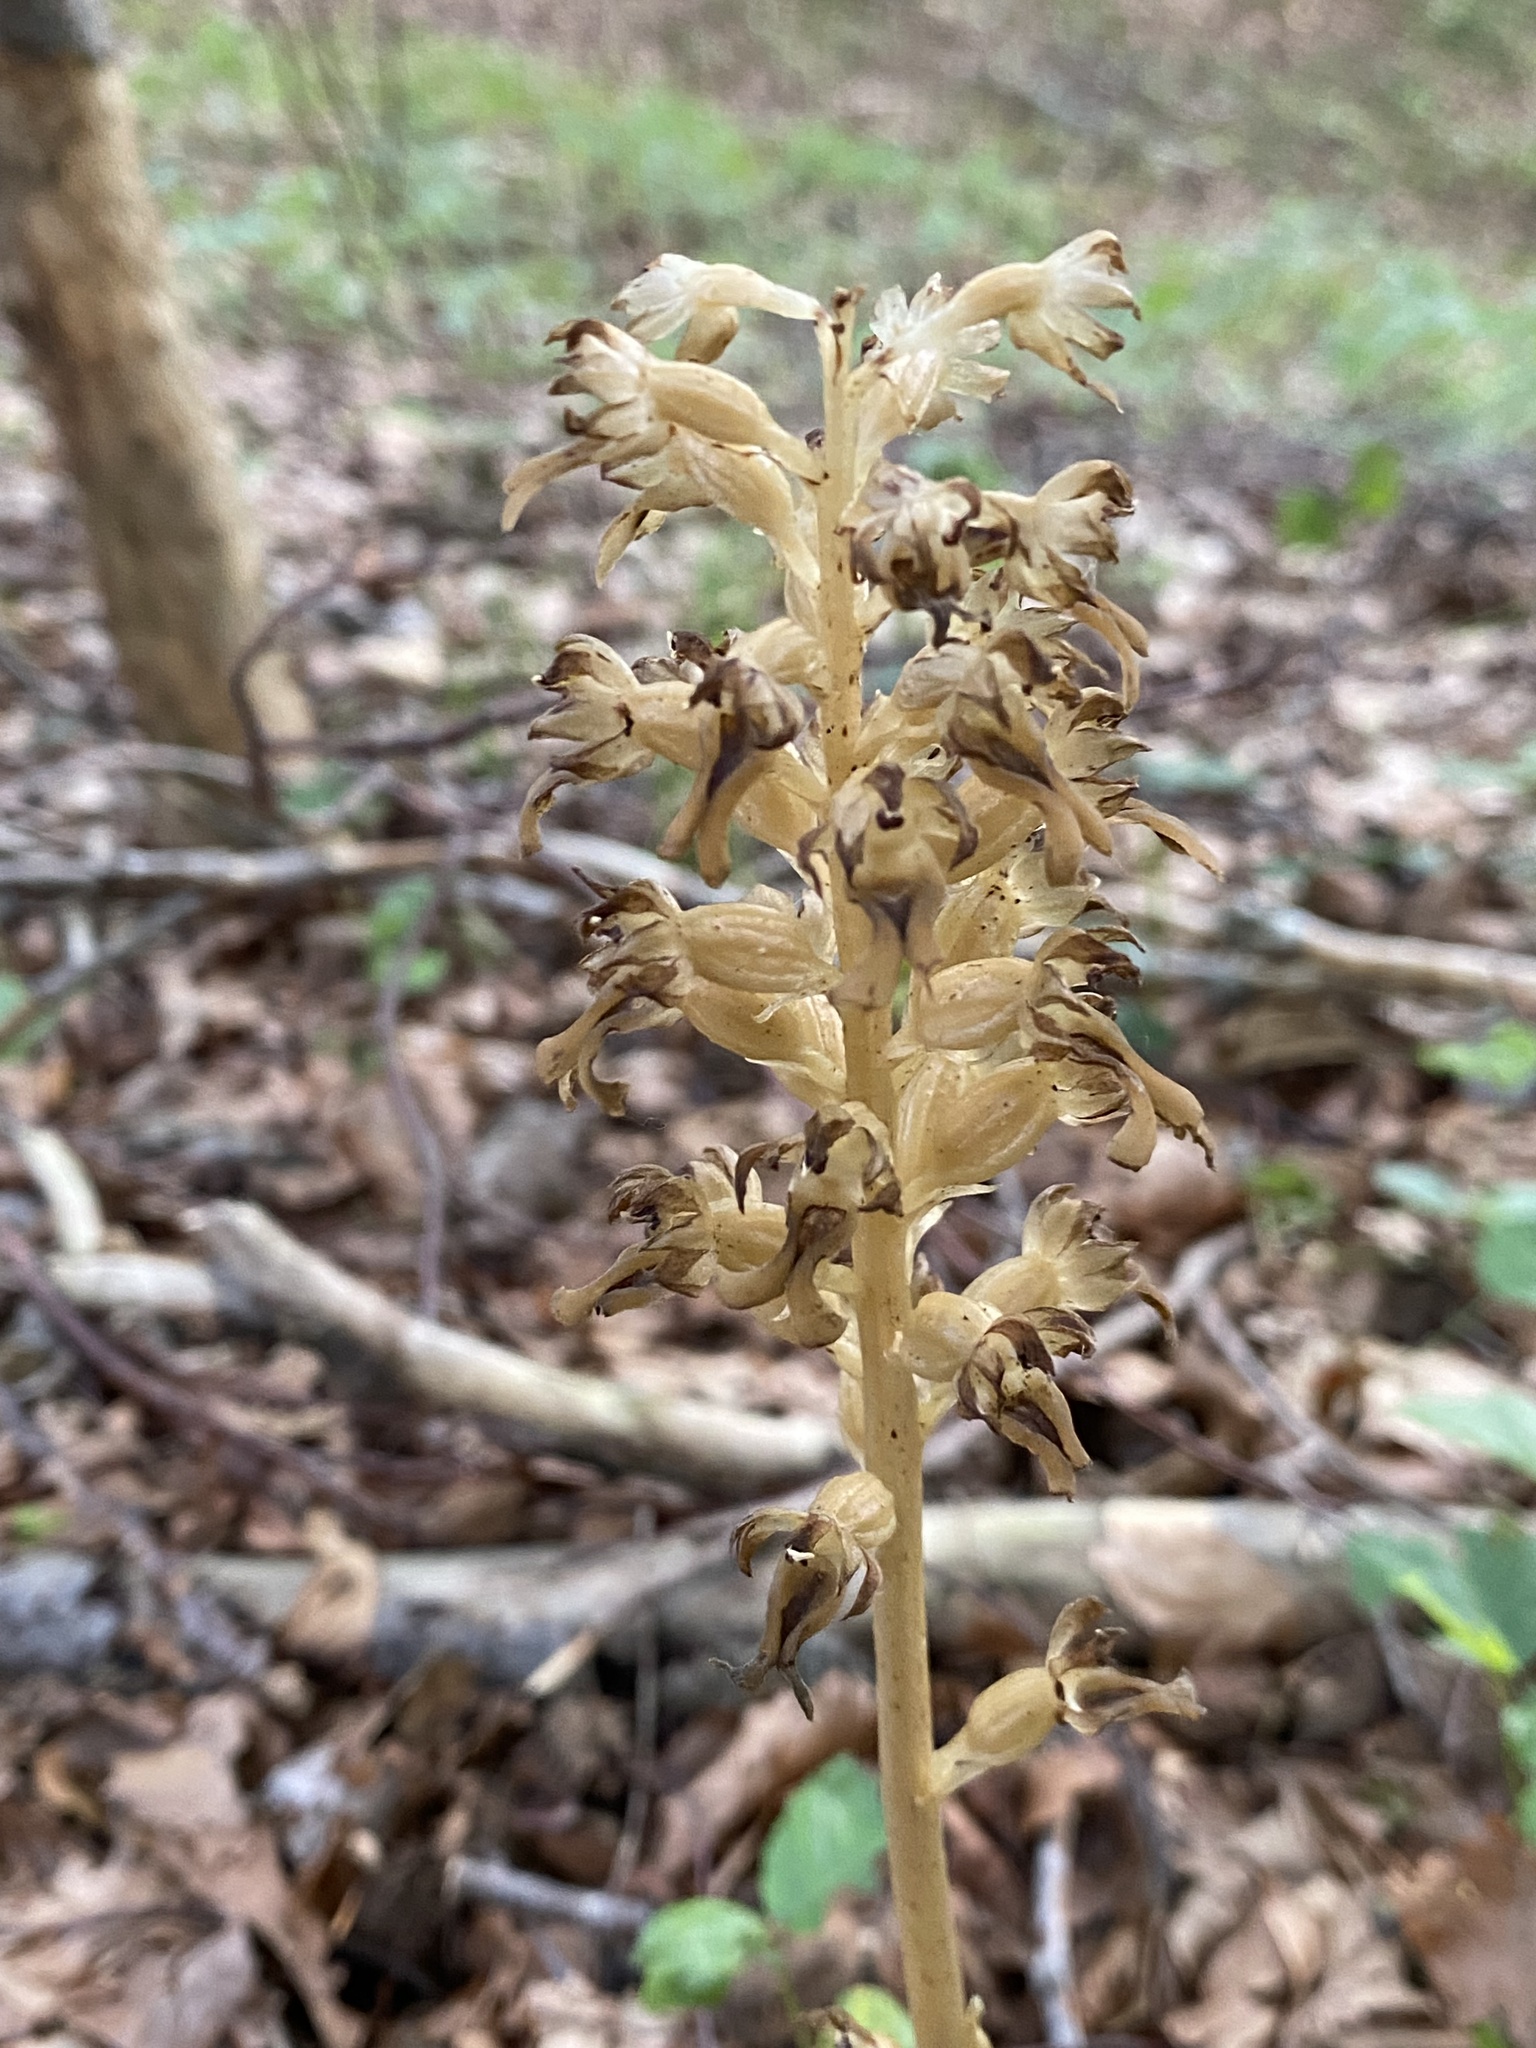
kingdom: Plantae
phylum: Tracheophyta
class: Liliopsida
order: Asparagales
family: Orchidaceae
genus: Neottia
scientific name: Neottia nidus-avis
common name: Bird's-nest orchid
